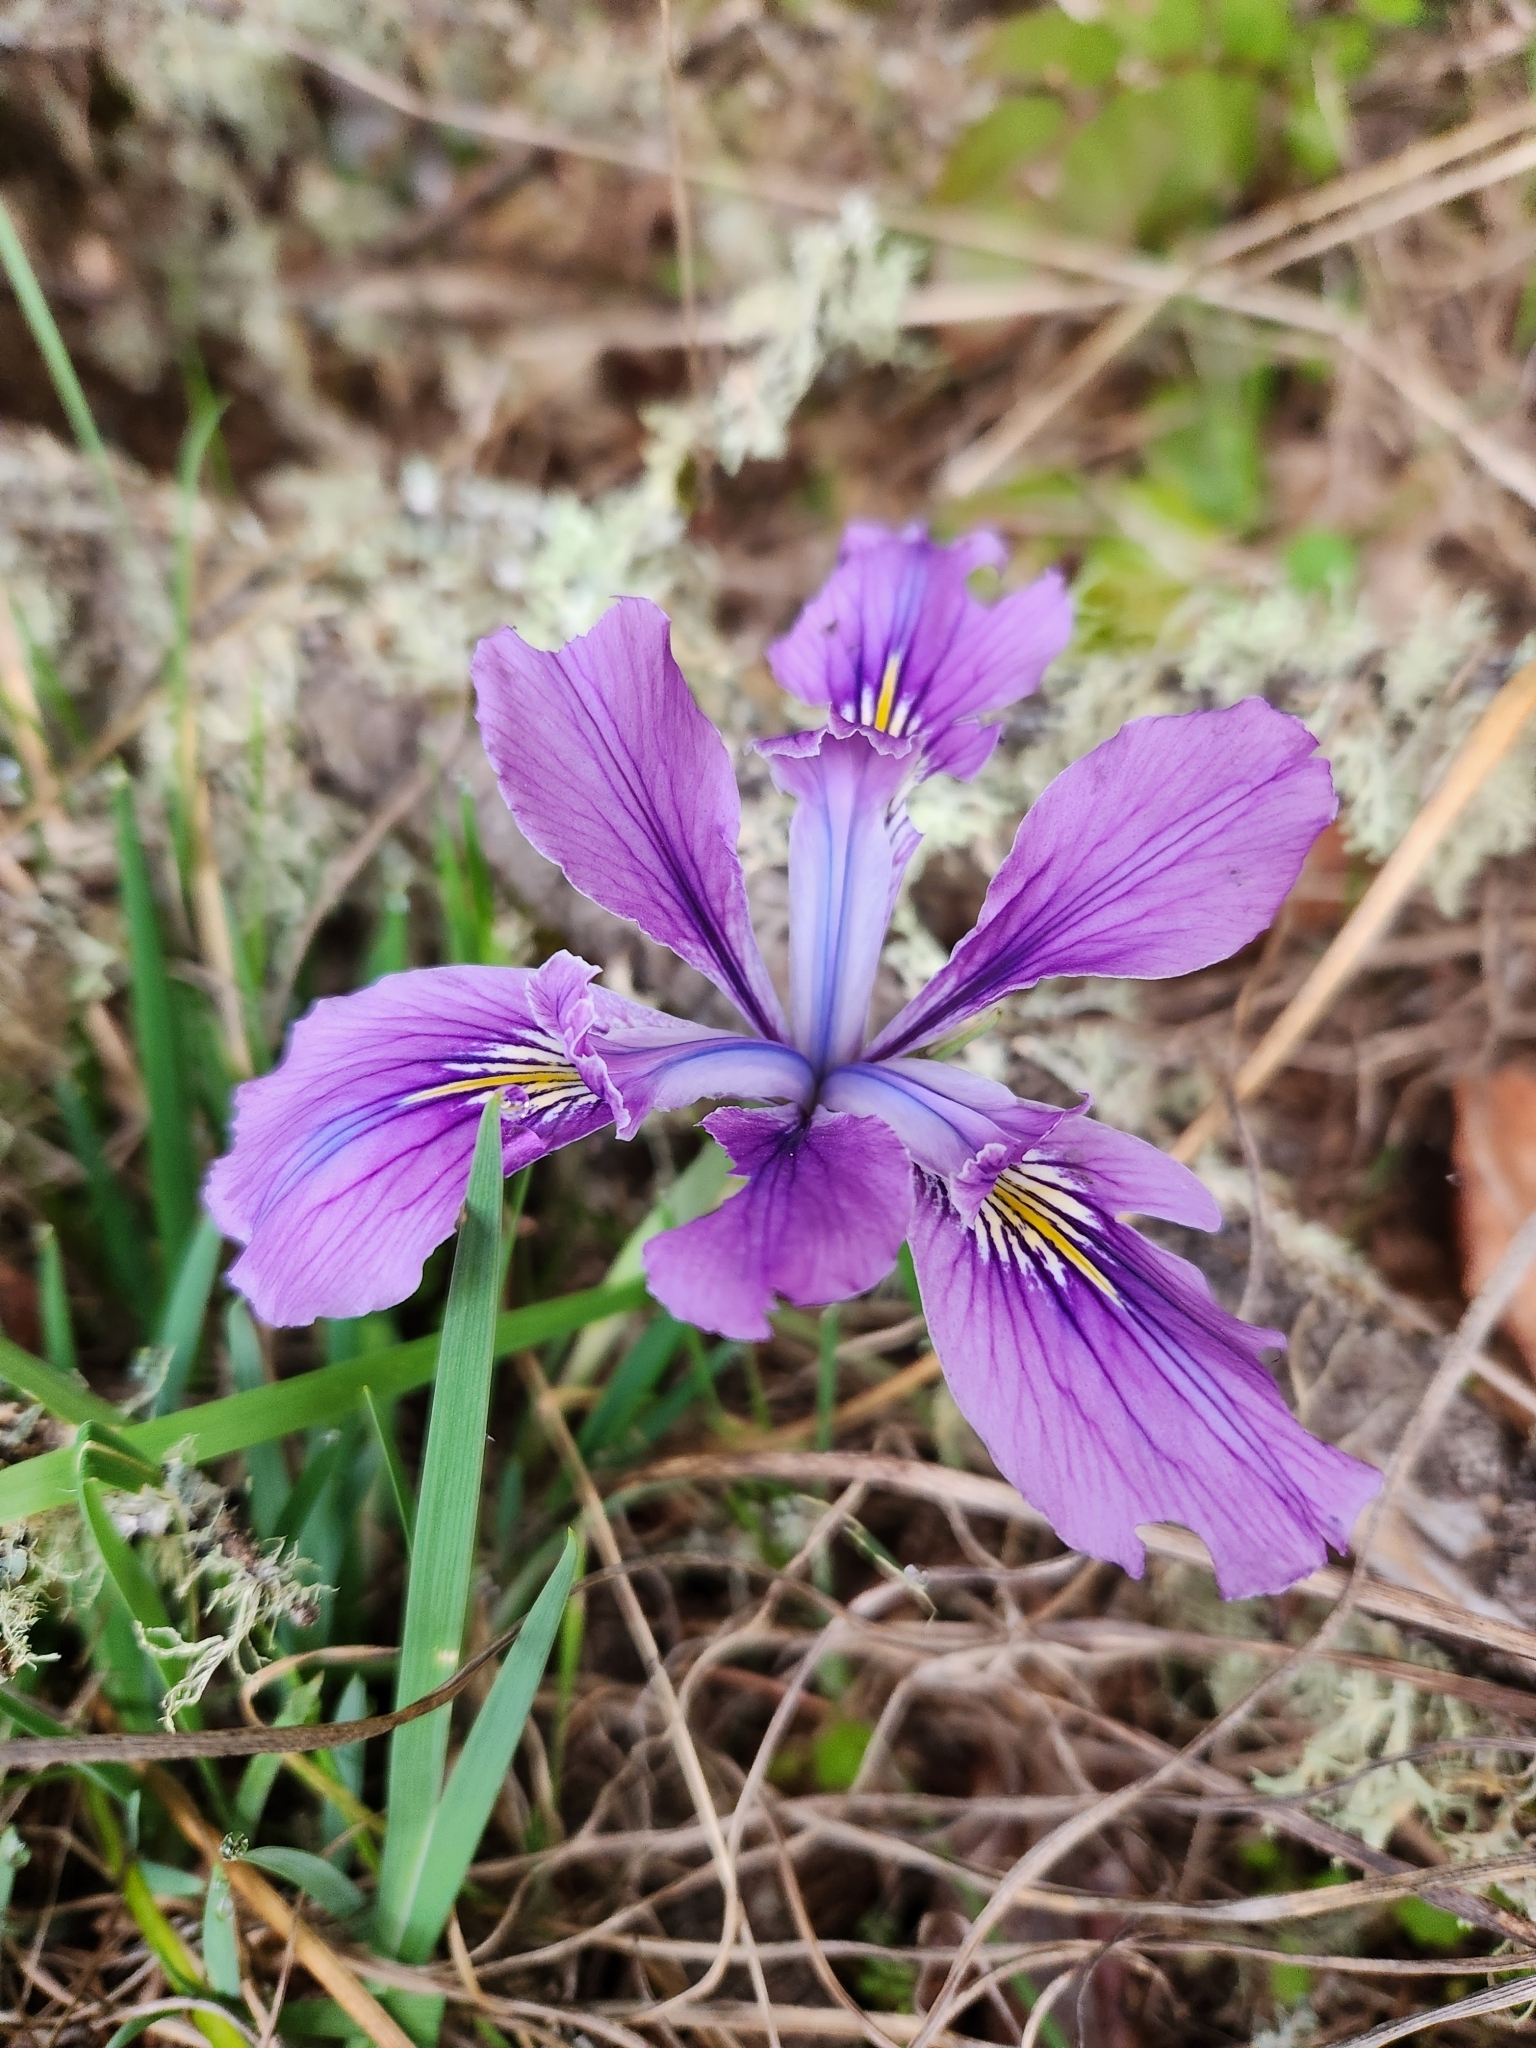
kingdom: Plantae
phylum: Tracheophyta
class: Liliopsida
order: Asparagales
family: Iridaceae
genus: Iris
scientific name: Iris tenax
